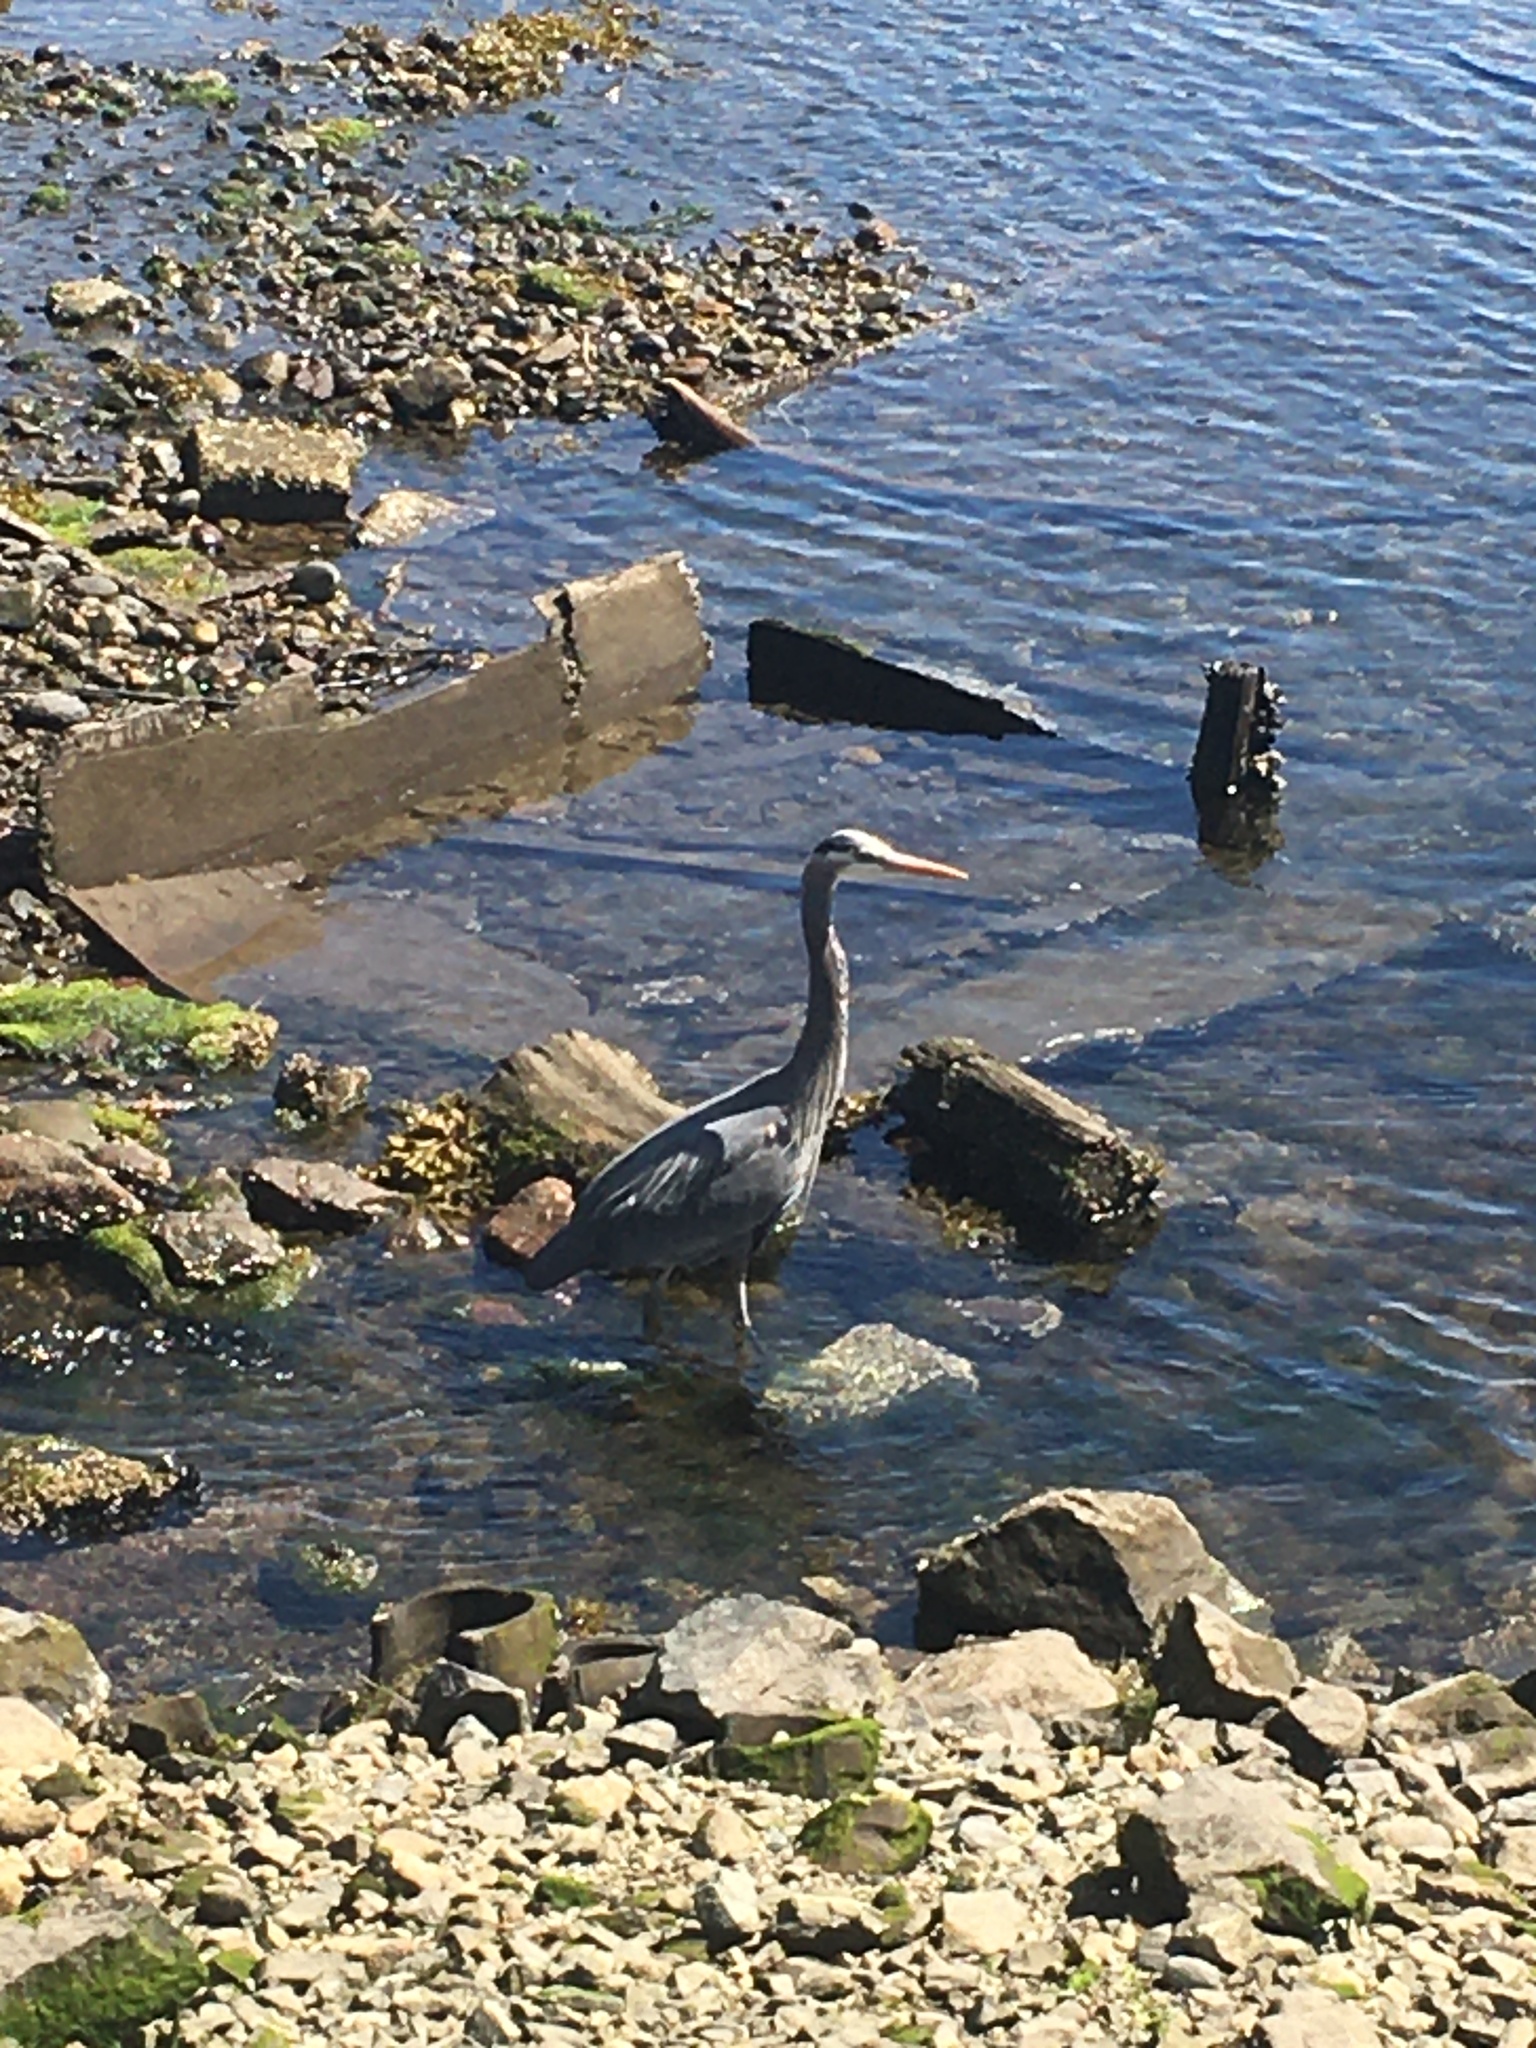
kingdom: Animalia
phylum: Chordata
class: Aves
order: Pelecaniformes
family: Ardeidae
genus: Ardea
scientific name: Ardea herodias
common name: Great blue heron
